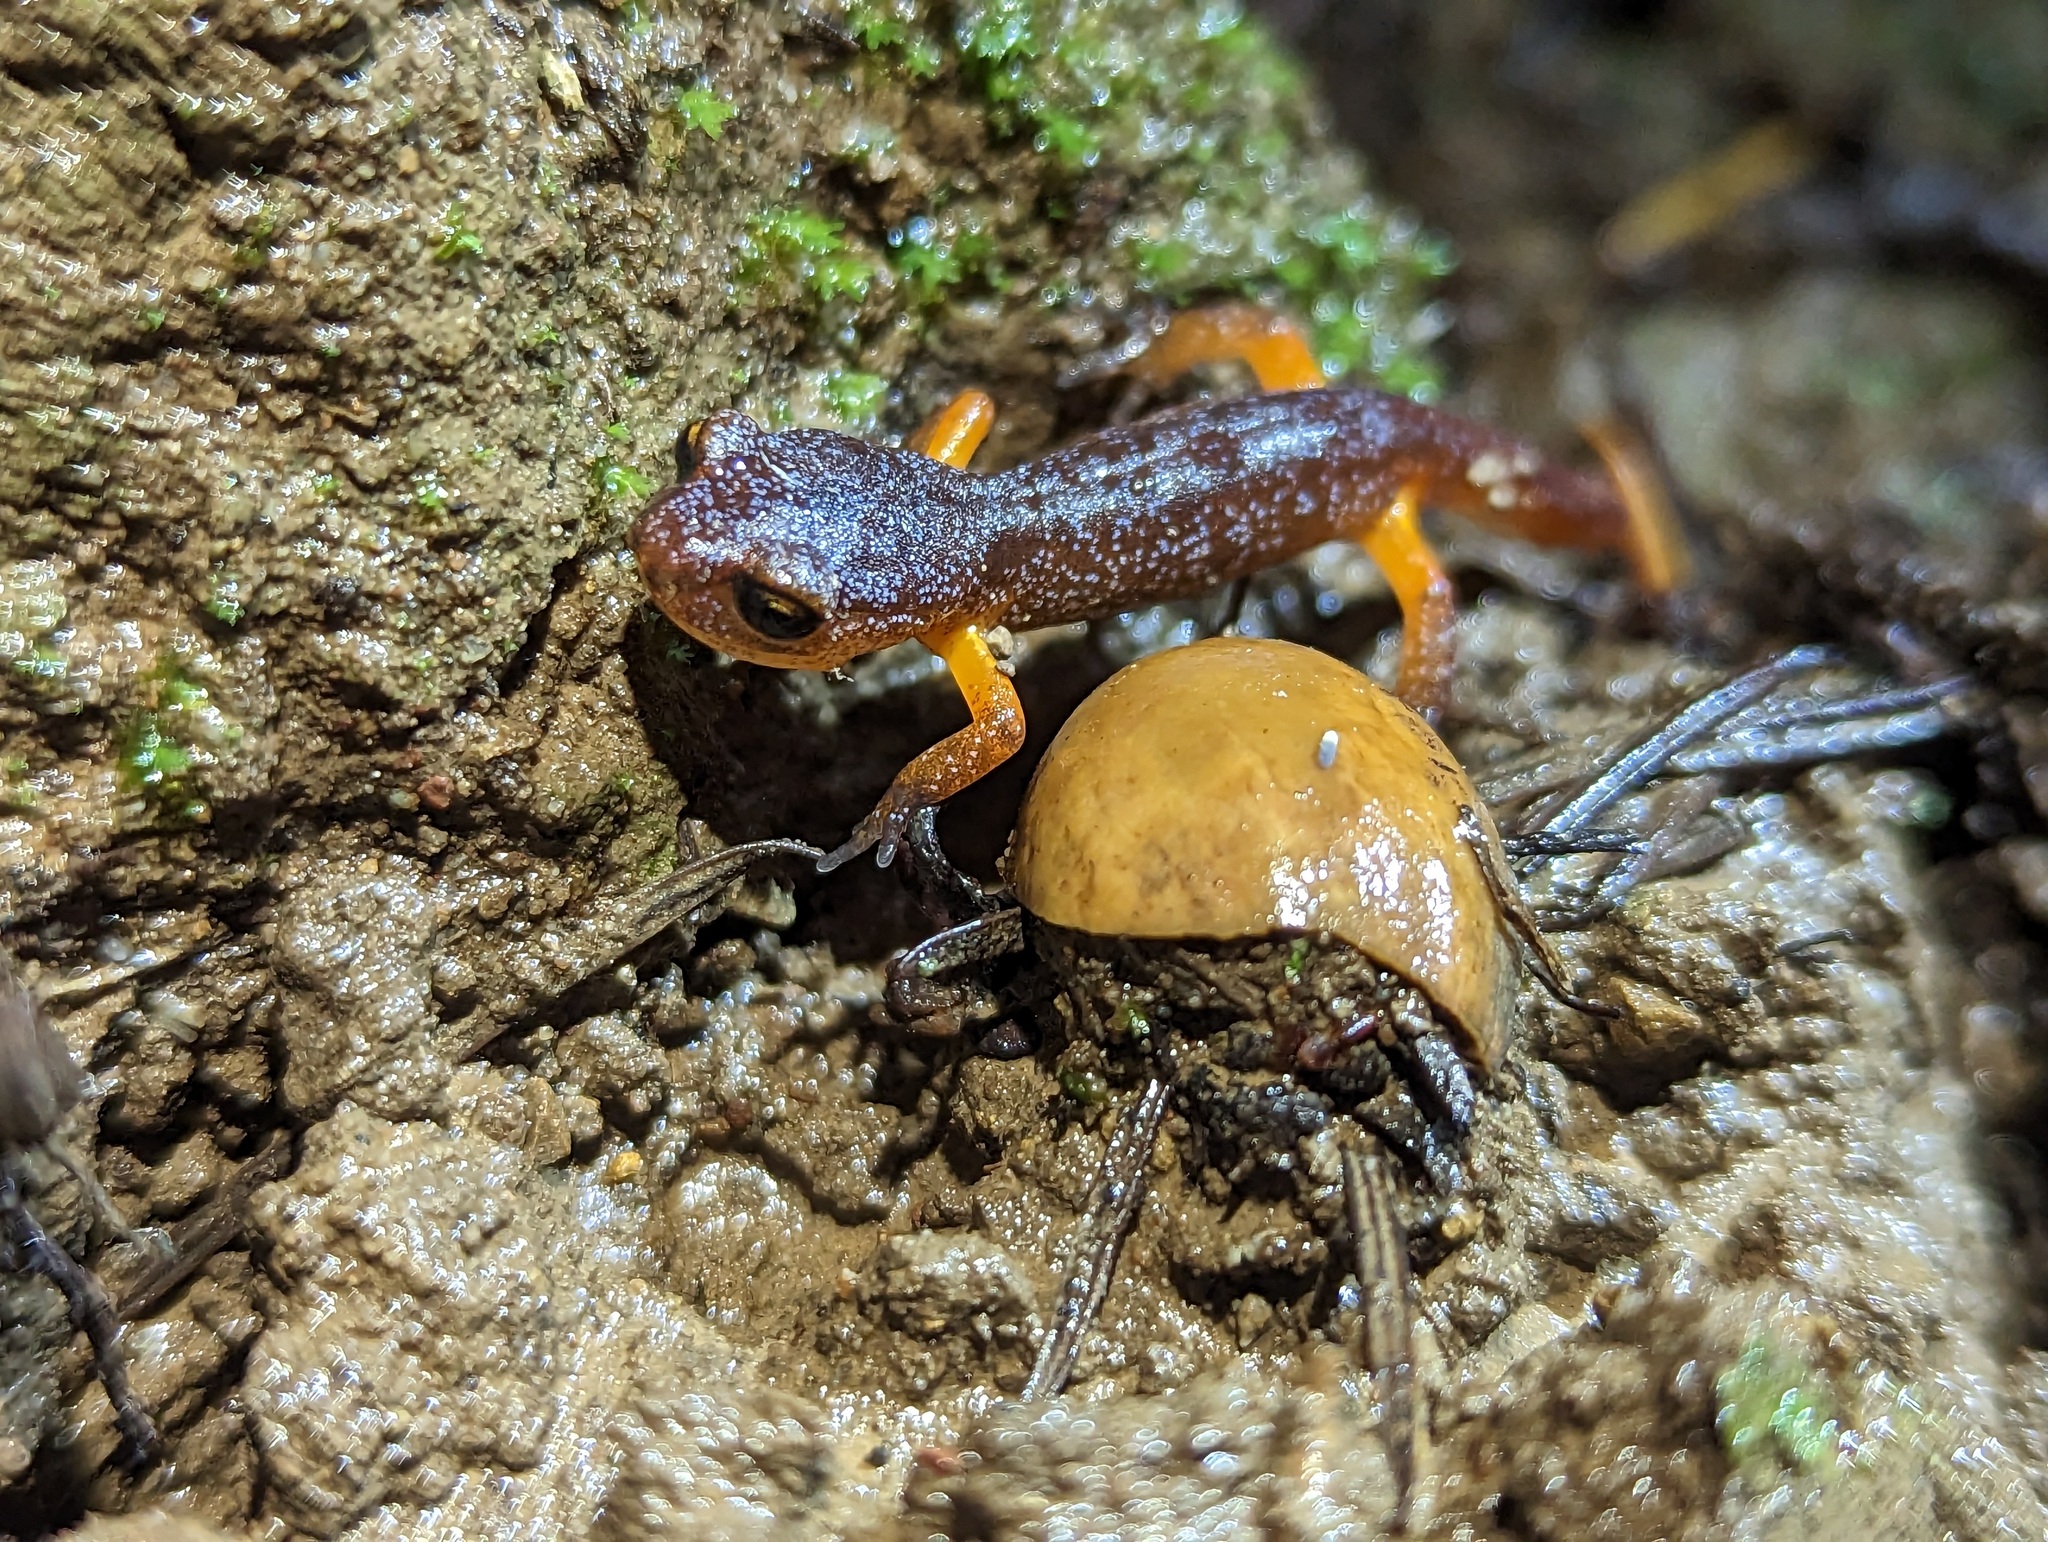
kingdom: Animalia
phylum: Chordata
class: Amphibia
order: Caudata
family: Plethodontidae
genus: Ensatina
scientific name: Ensatina eschscholtzii
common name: Ensatina
